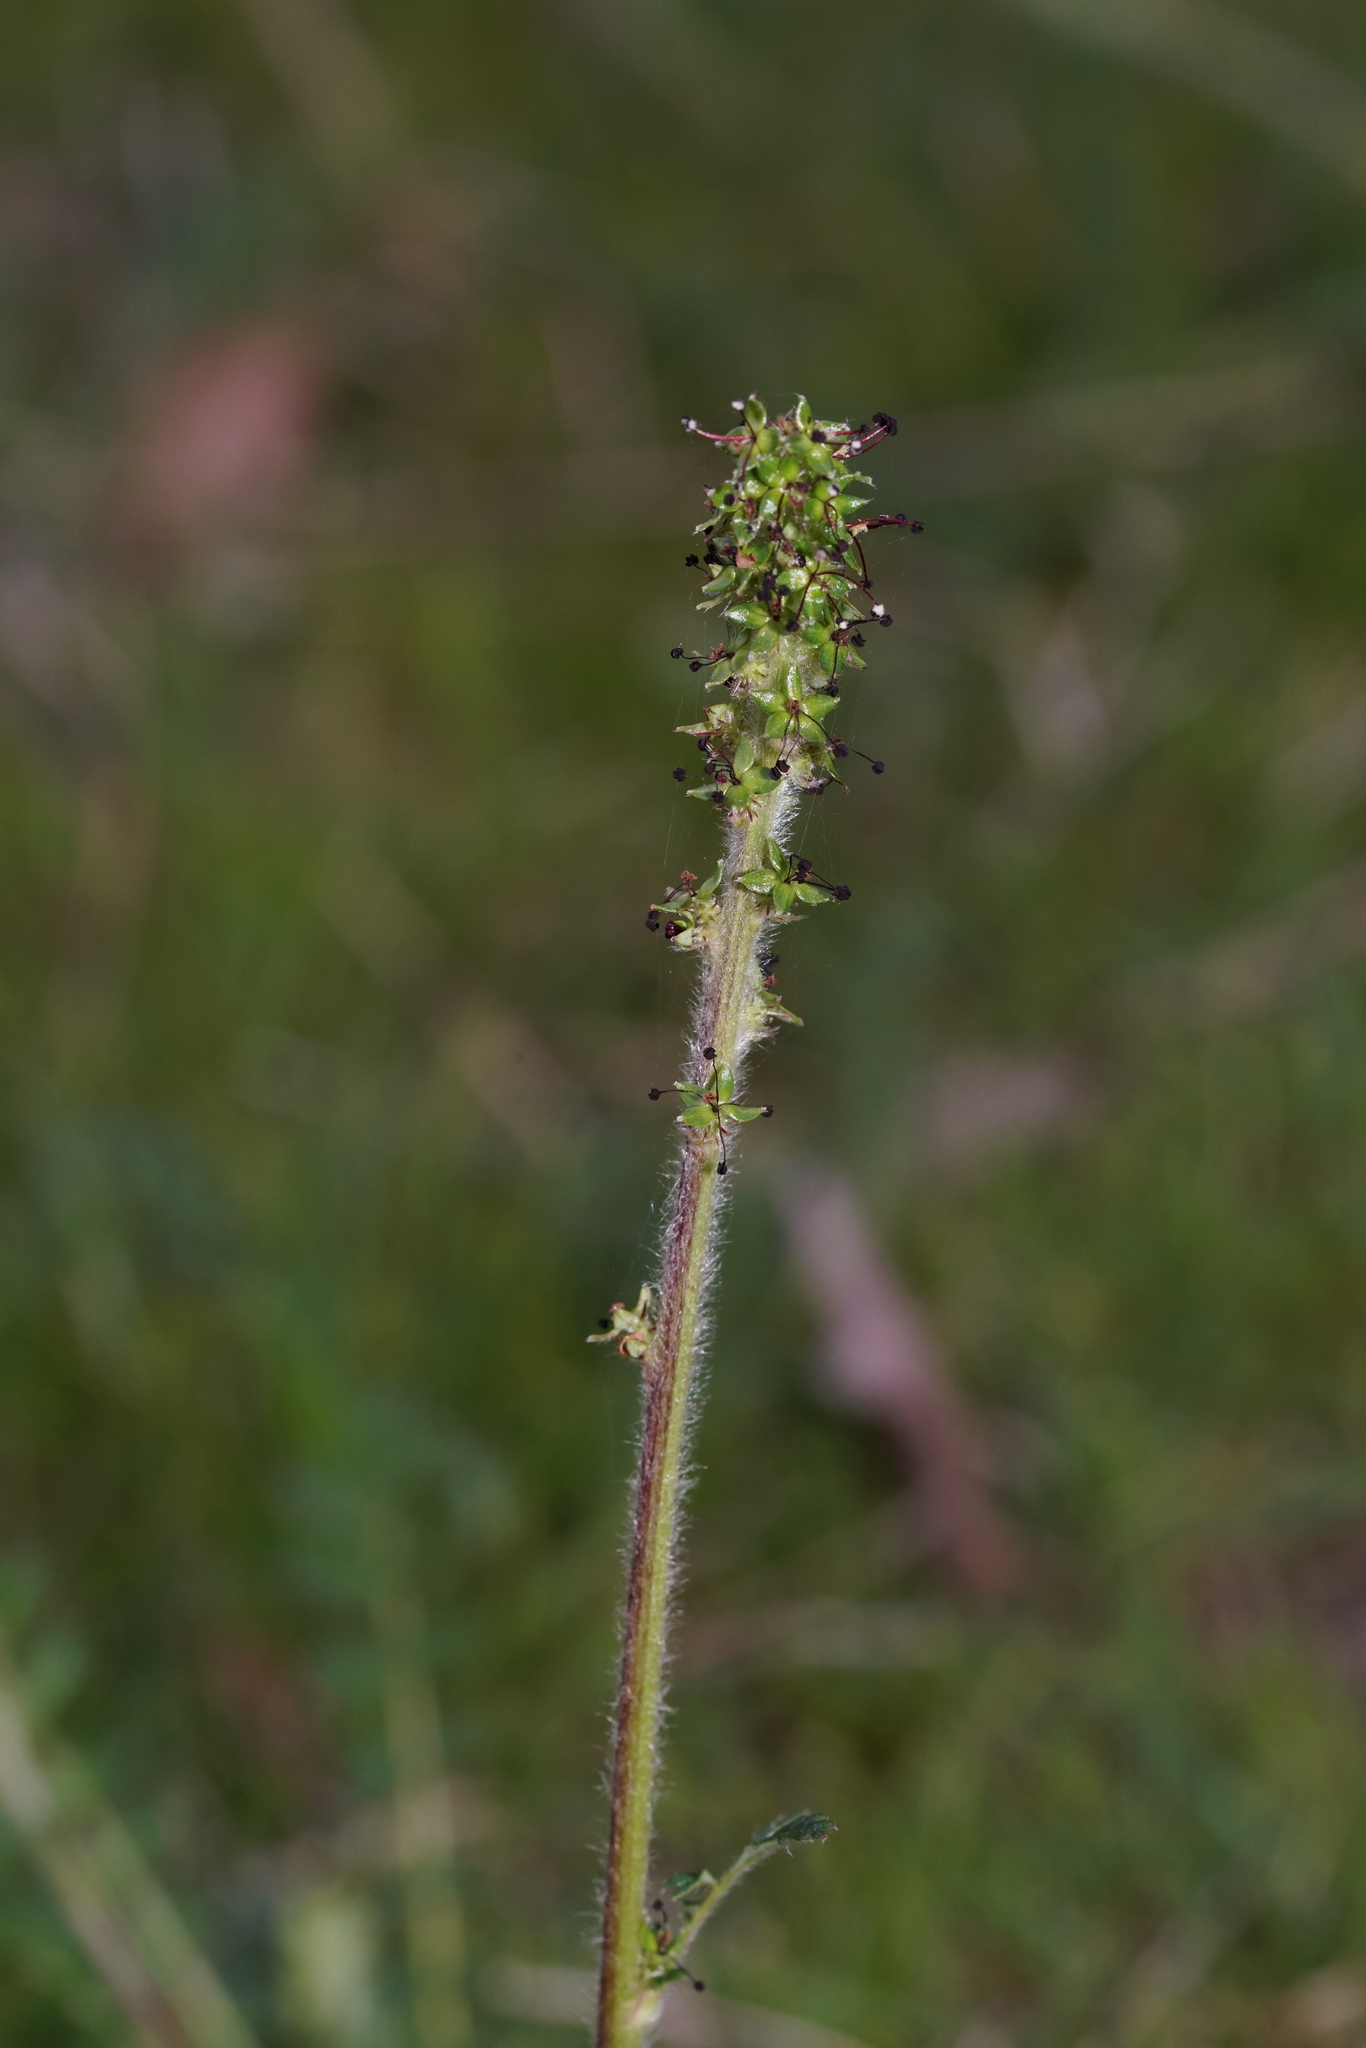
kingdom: Plantae
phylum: Tracheophyta
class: Magnoliopsida
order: Rosales
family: Rosaceae
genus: Acaena
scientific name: Acaena echinata
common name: Sheepbur
